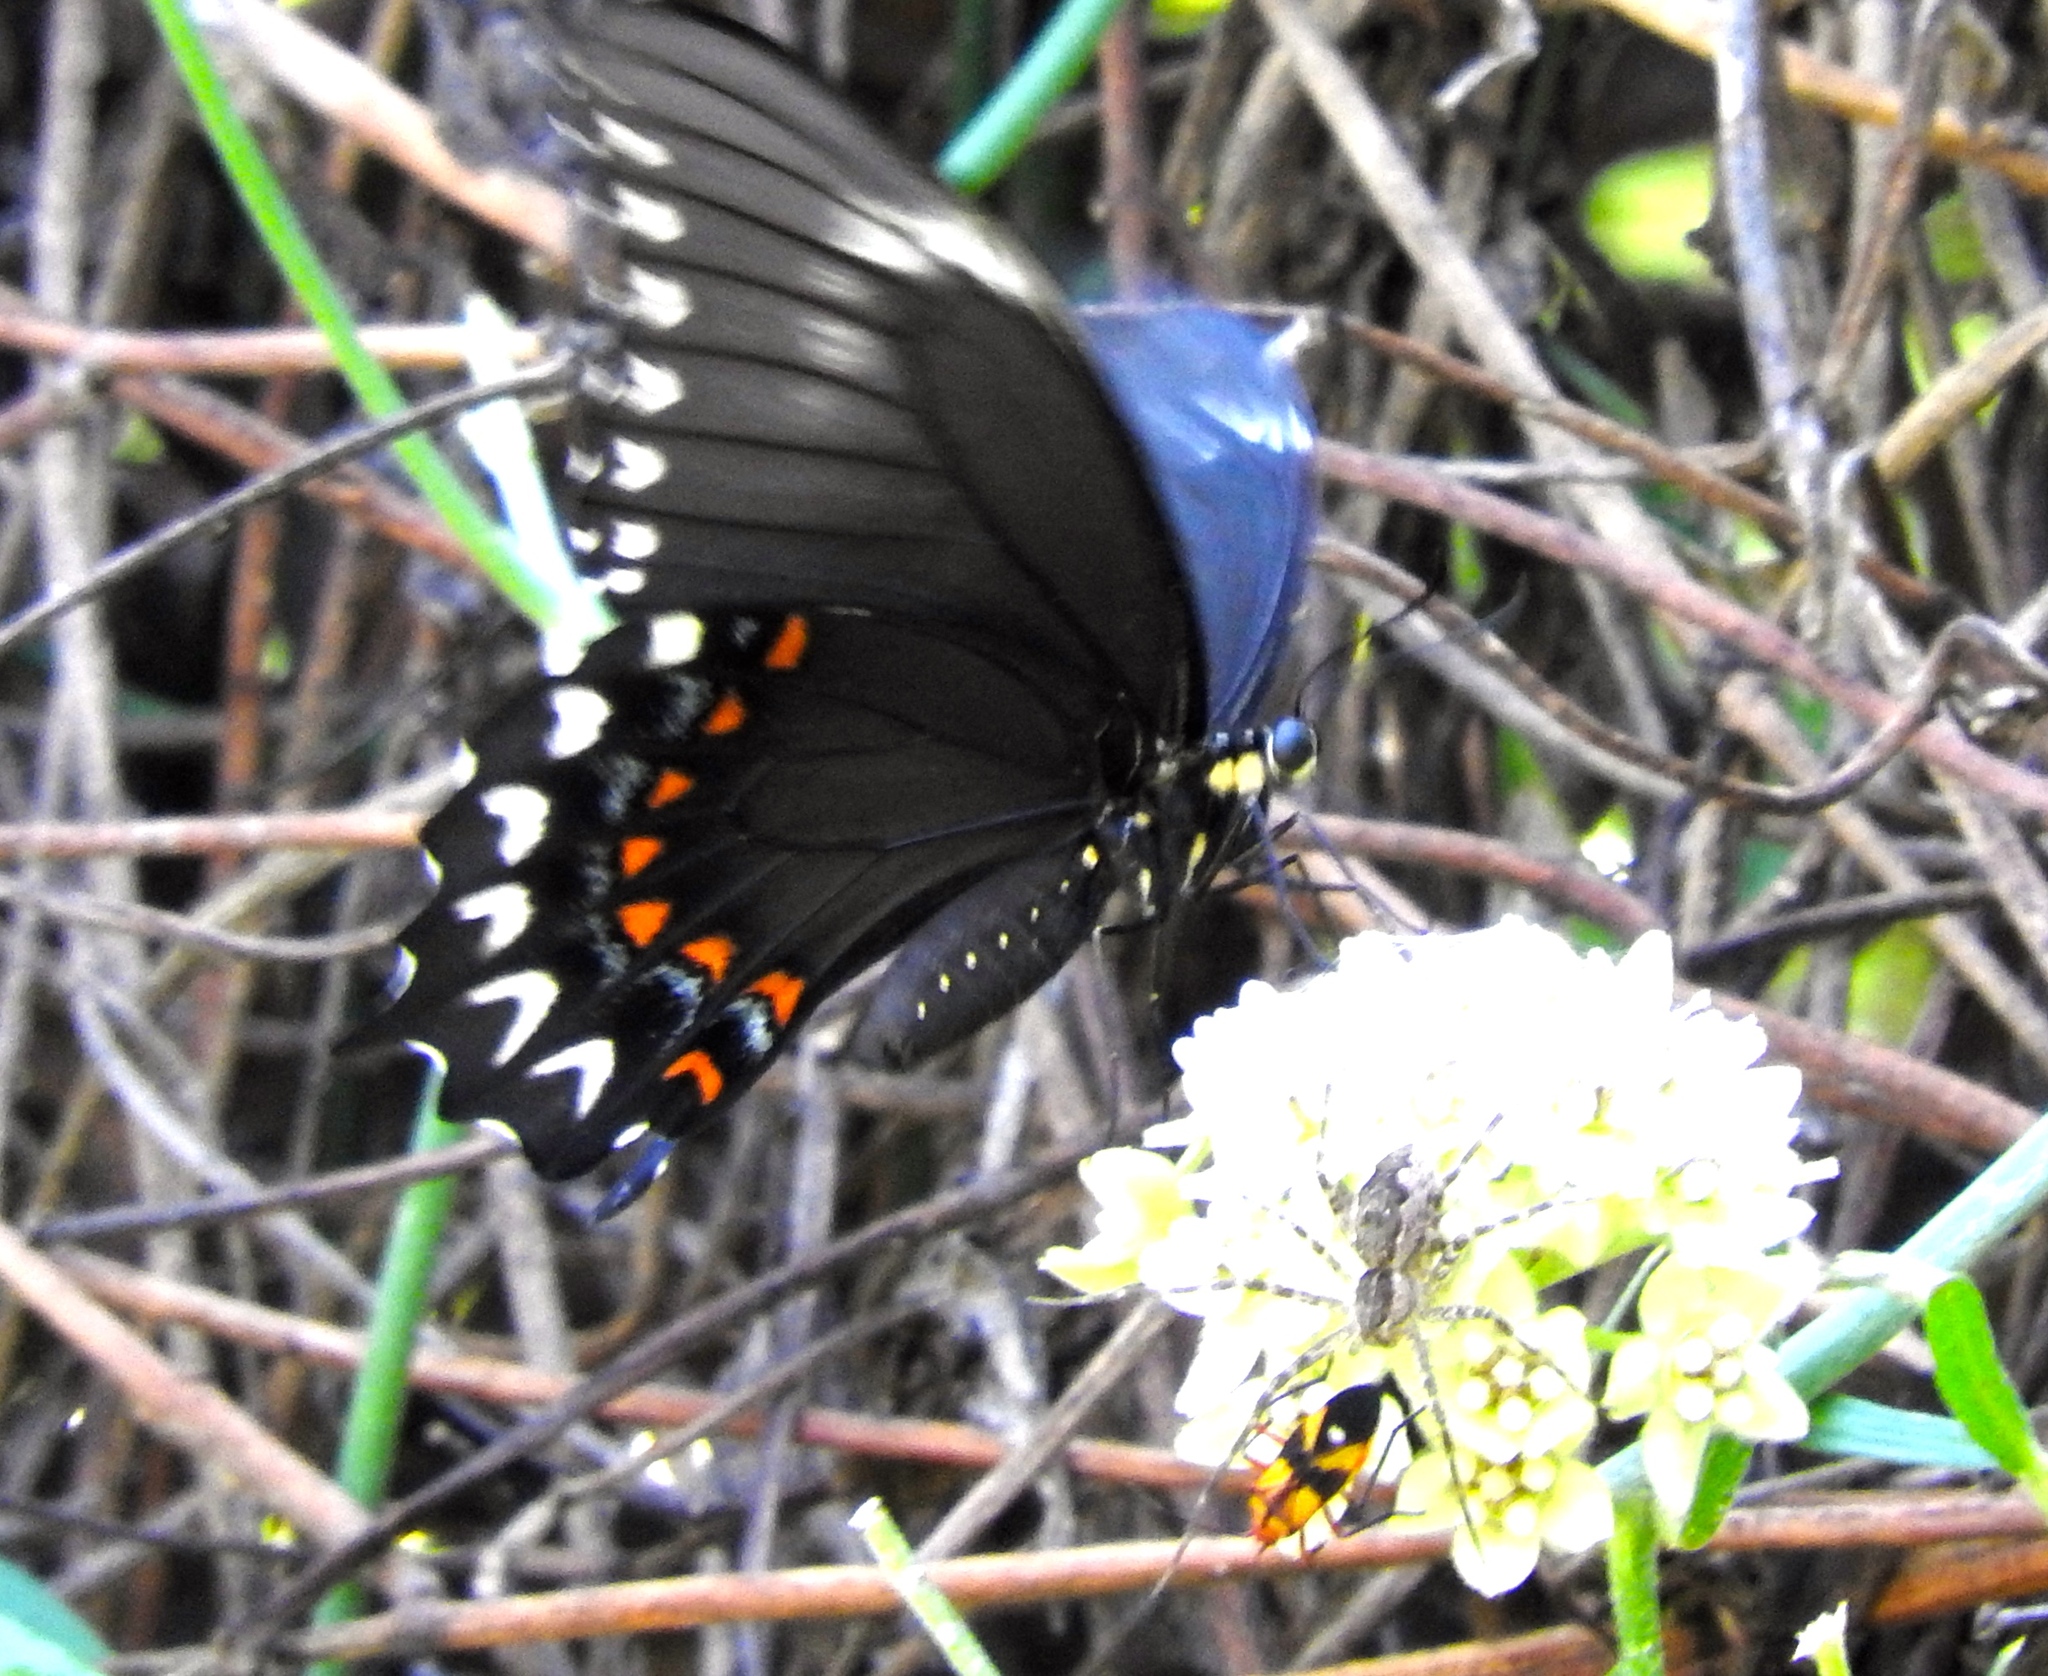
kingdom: Animalia
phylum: Arthropoda
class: Insecta
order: Lepidoptera
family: Papilionidae
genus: Heraclides
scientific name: Heraclides pallas
